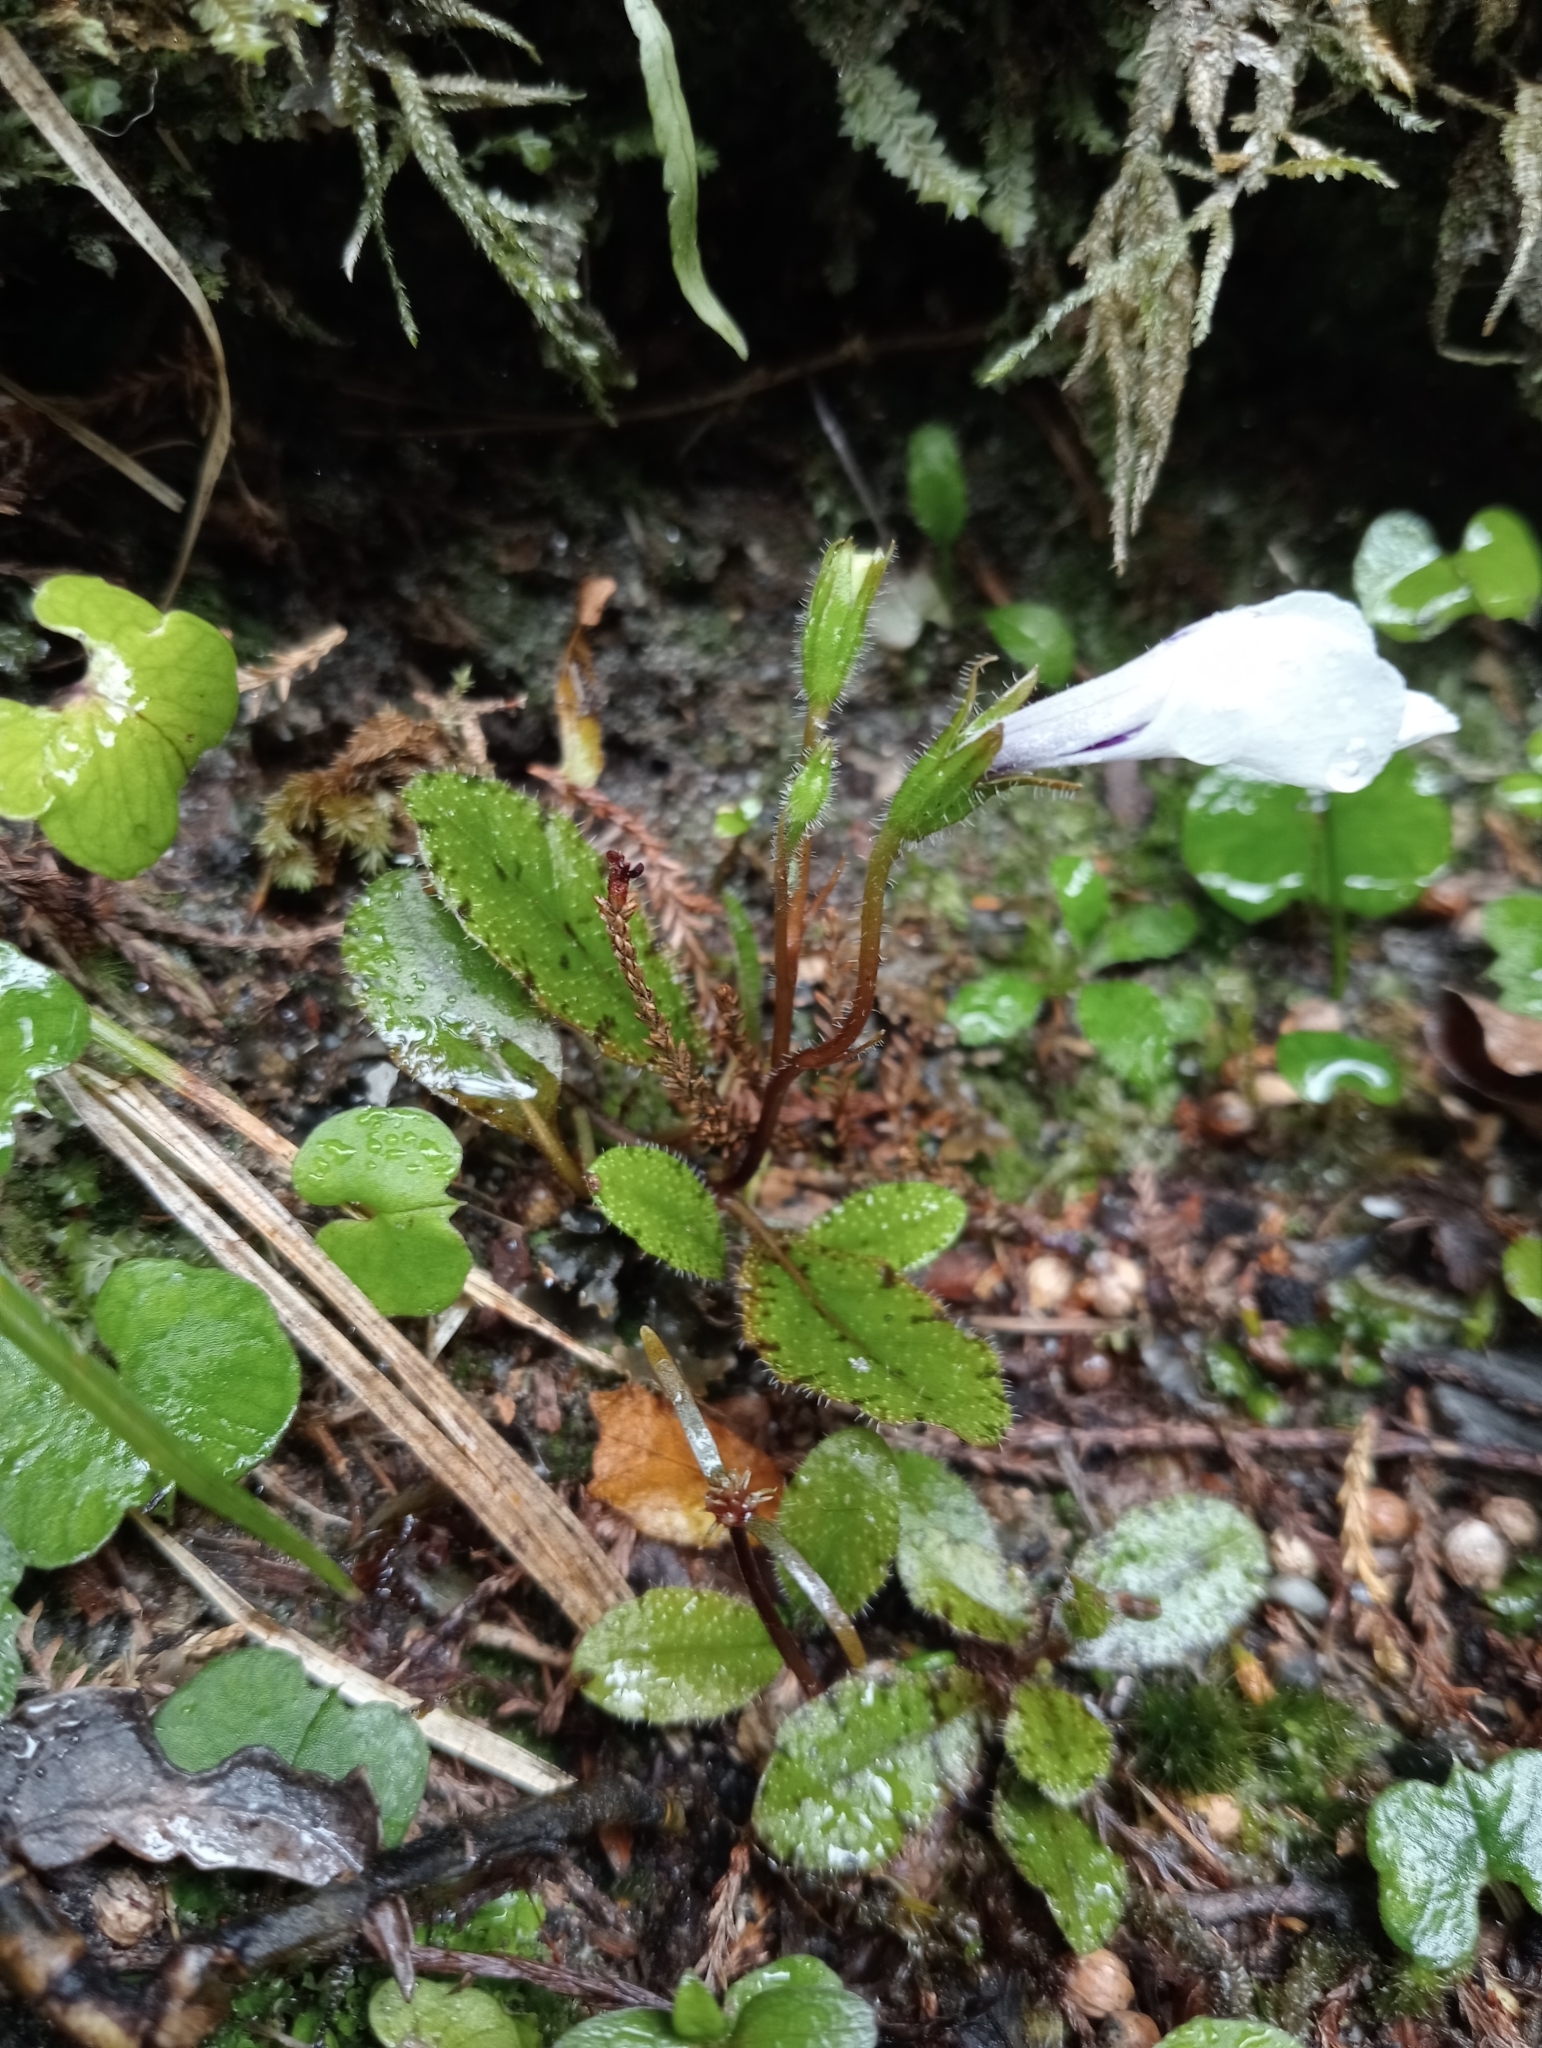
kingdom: Plantae
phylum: Tracheophyta
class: Magnoliopsida
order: Lamiales
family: Mazaceae
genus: Mazus
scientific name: Mazus radicans
